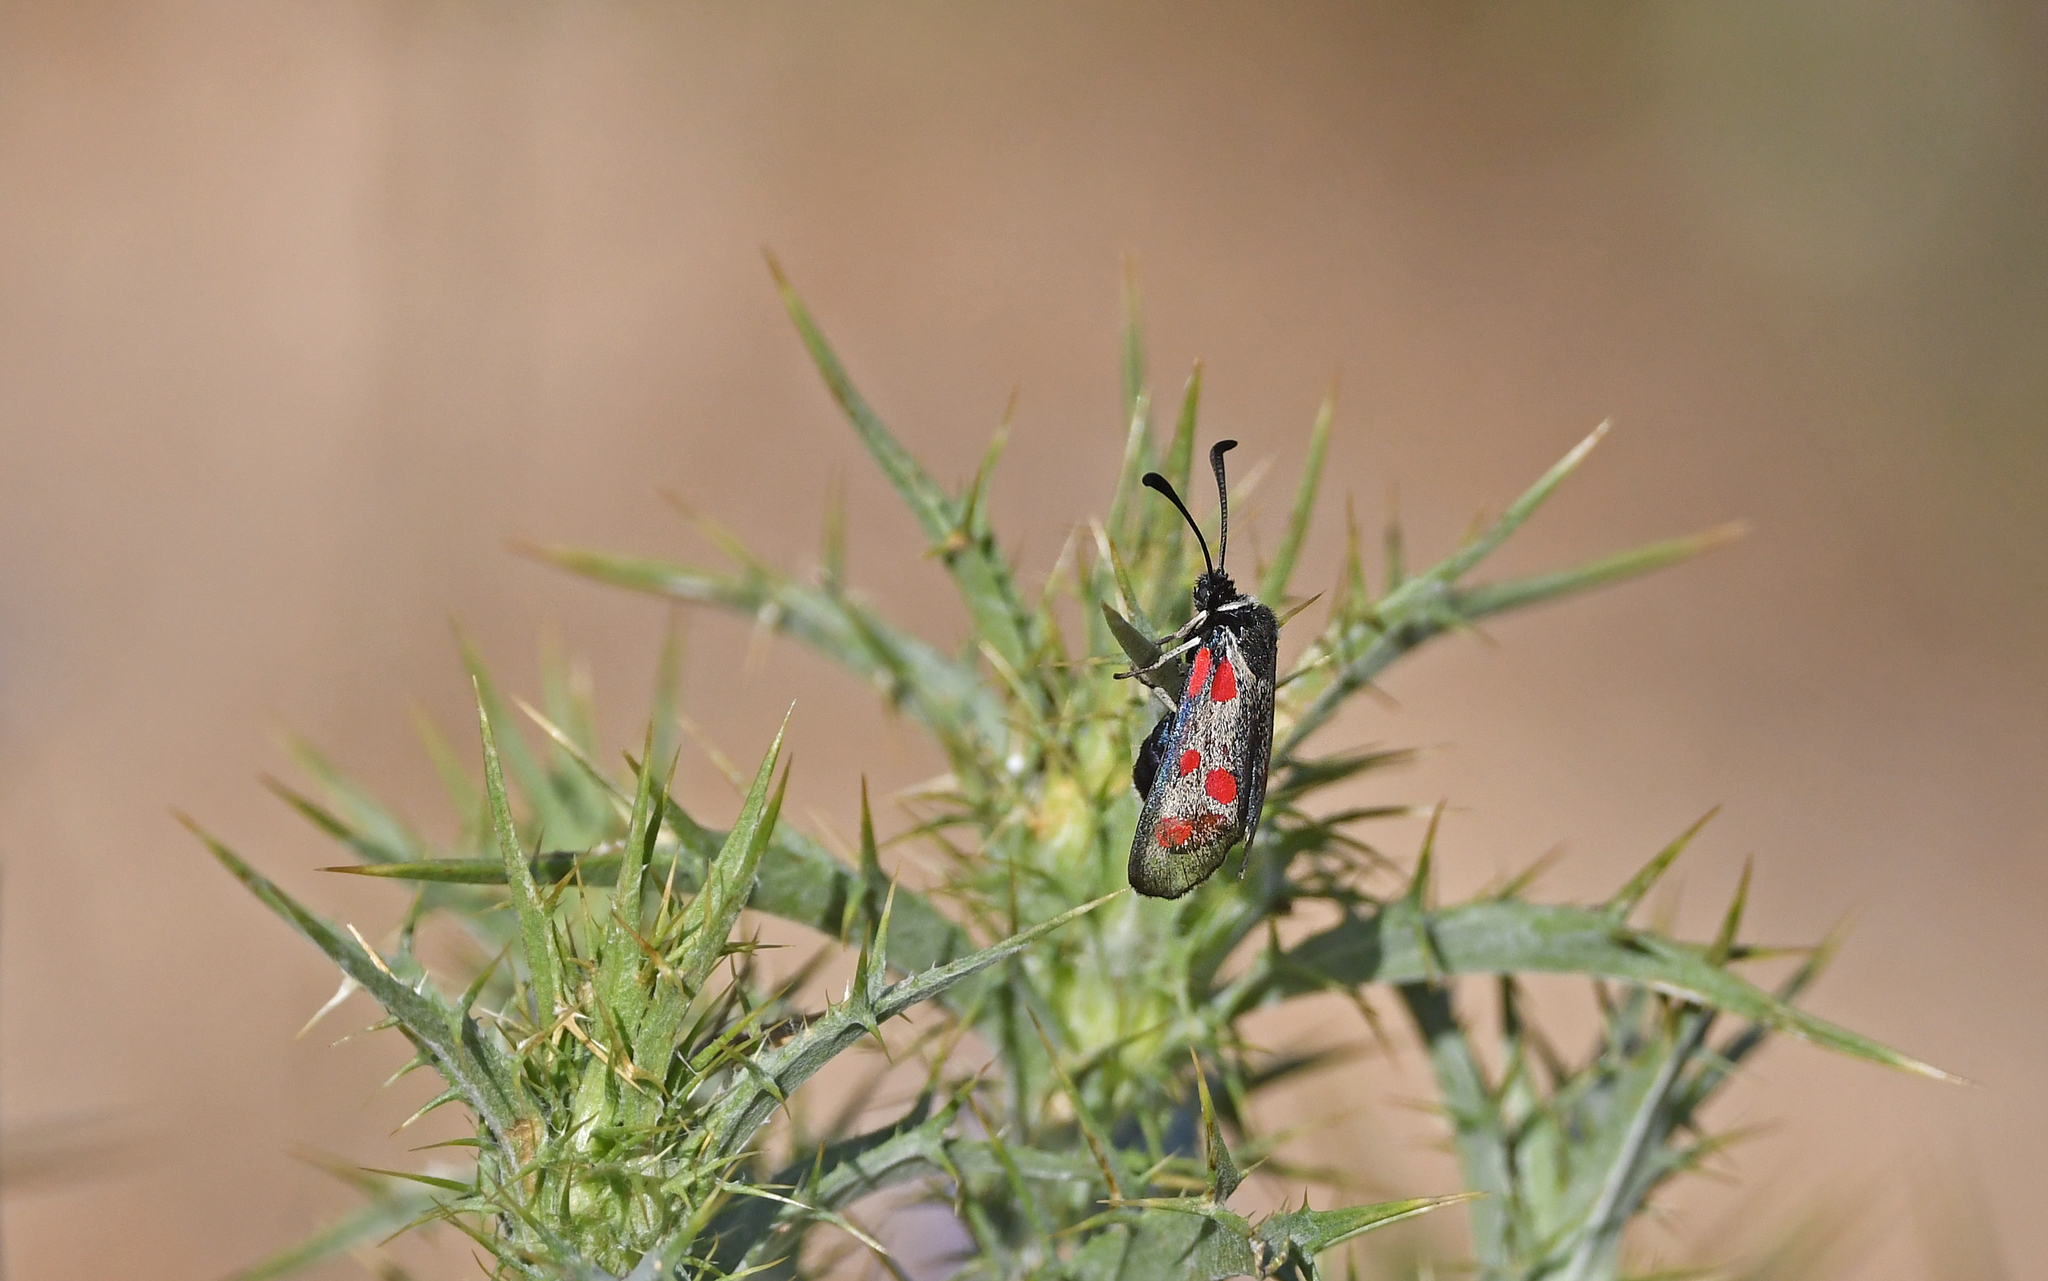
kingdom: Animalia
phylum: Arthropoda
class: Insecta
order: Lepidoptera
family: Zygaenidae
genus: Zygaena
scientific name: Zygaena corsica
